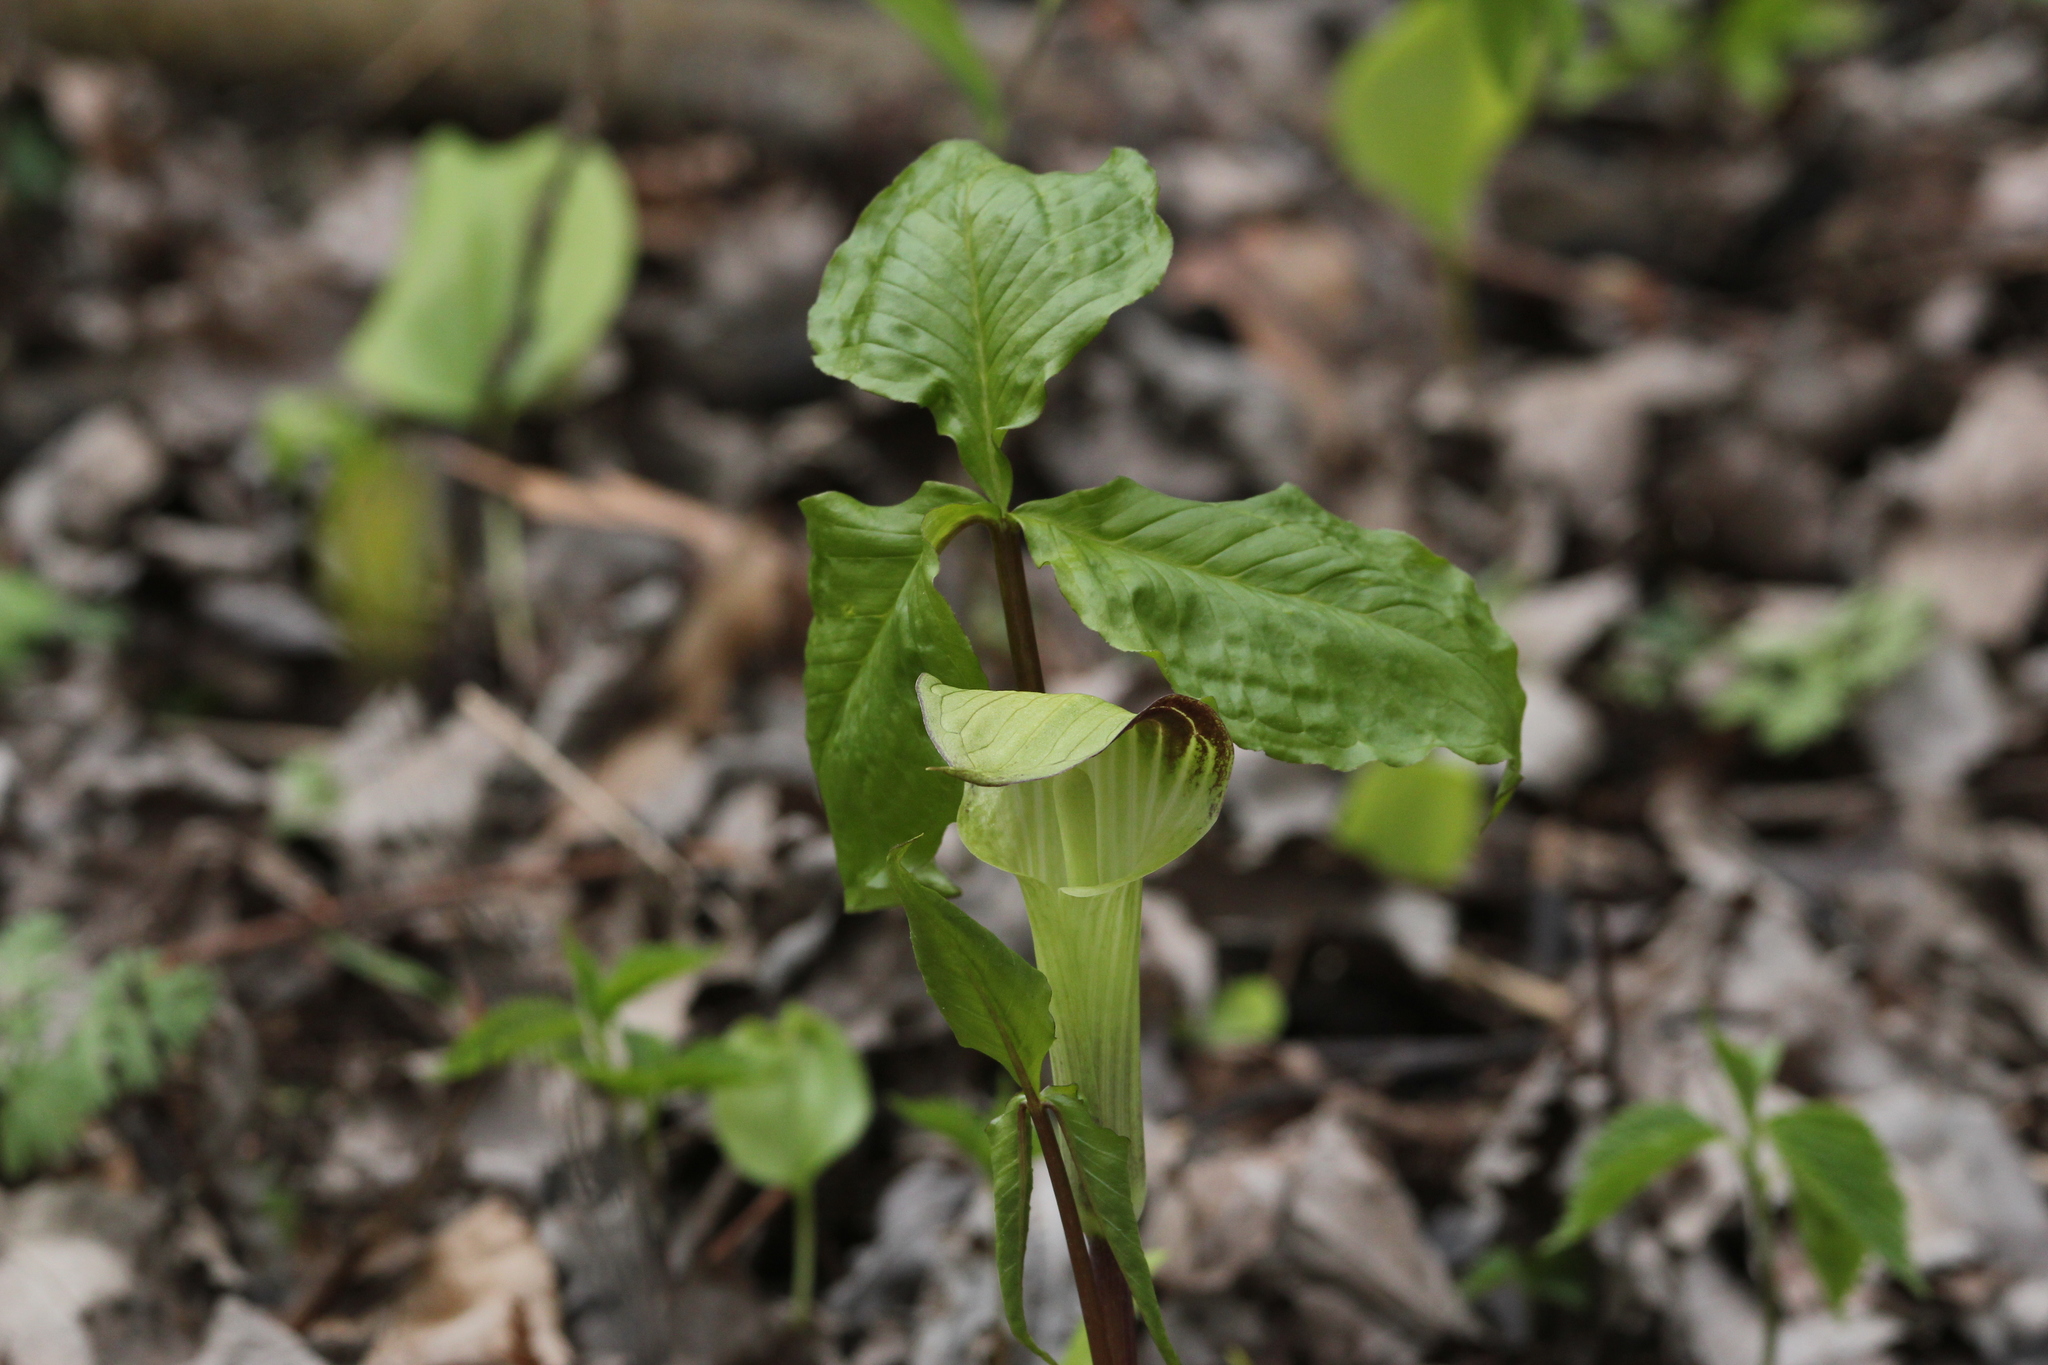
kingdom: Plantae
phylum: Tracheophyta
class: Liliopsida
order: Alismatales
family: Araceae
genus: Arisaema
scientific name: Arisaema triphyllum
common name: Jack-in-the-pulpit
